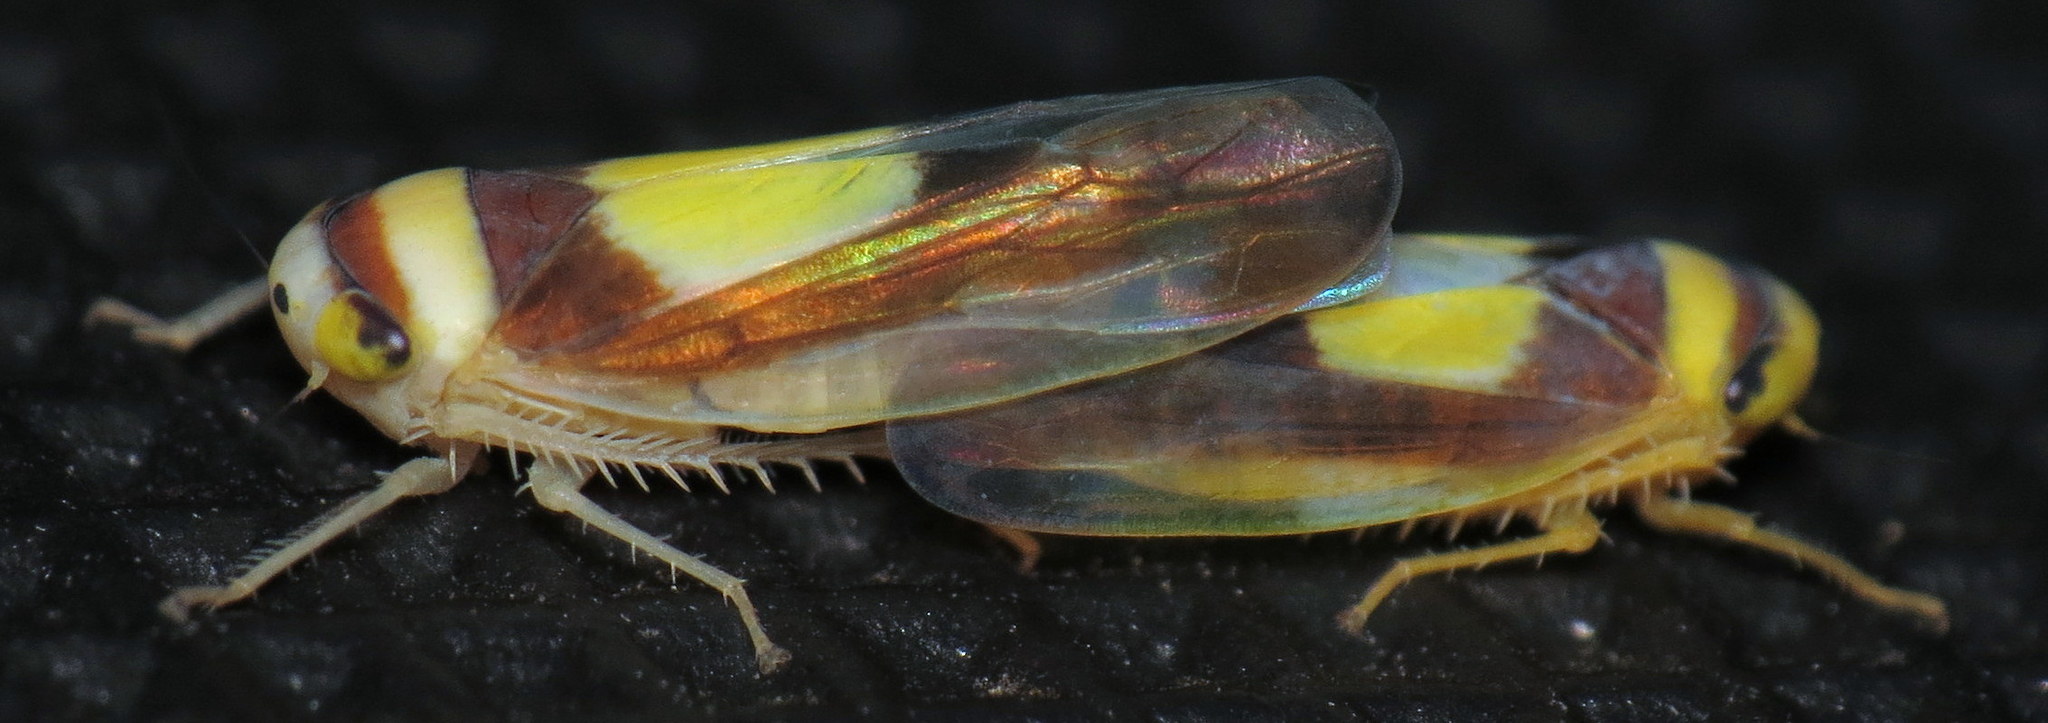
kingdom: Animalia
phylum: Arthropoda
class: Insecta
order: Hemiptera
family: Cicadellidae
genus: Colladonus
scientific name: Colladonus clitellarius
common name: The saddleback leafhopper
